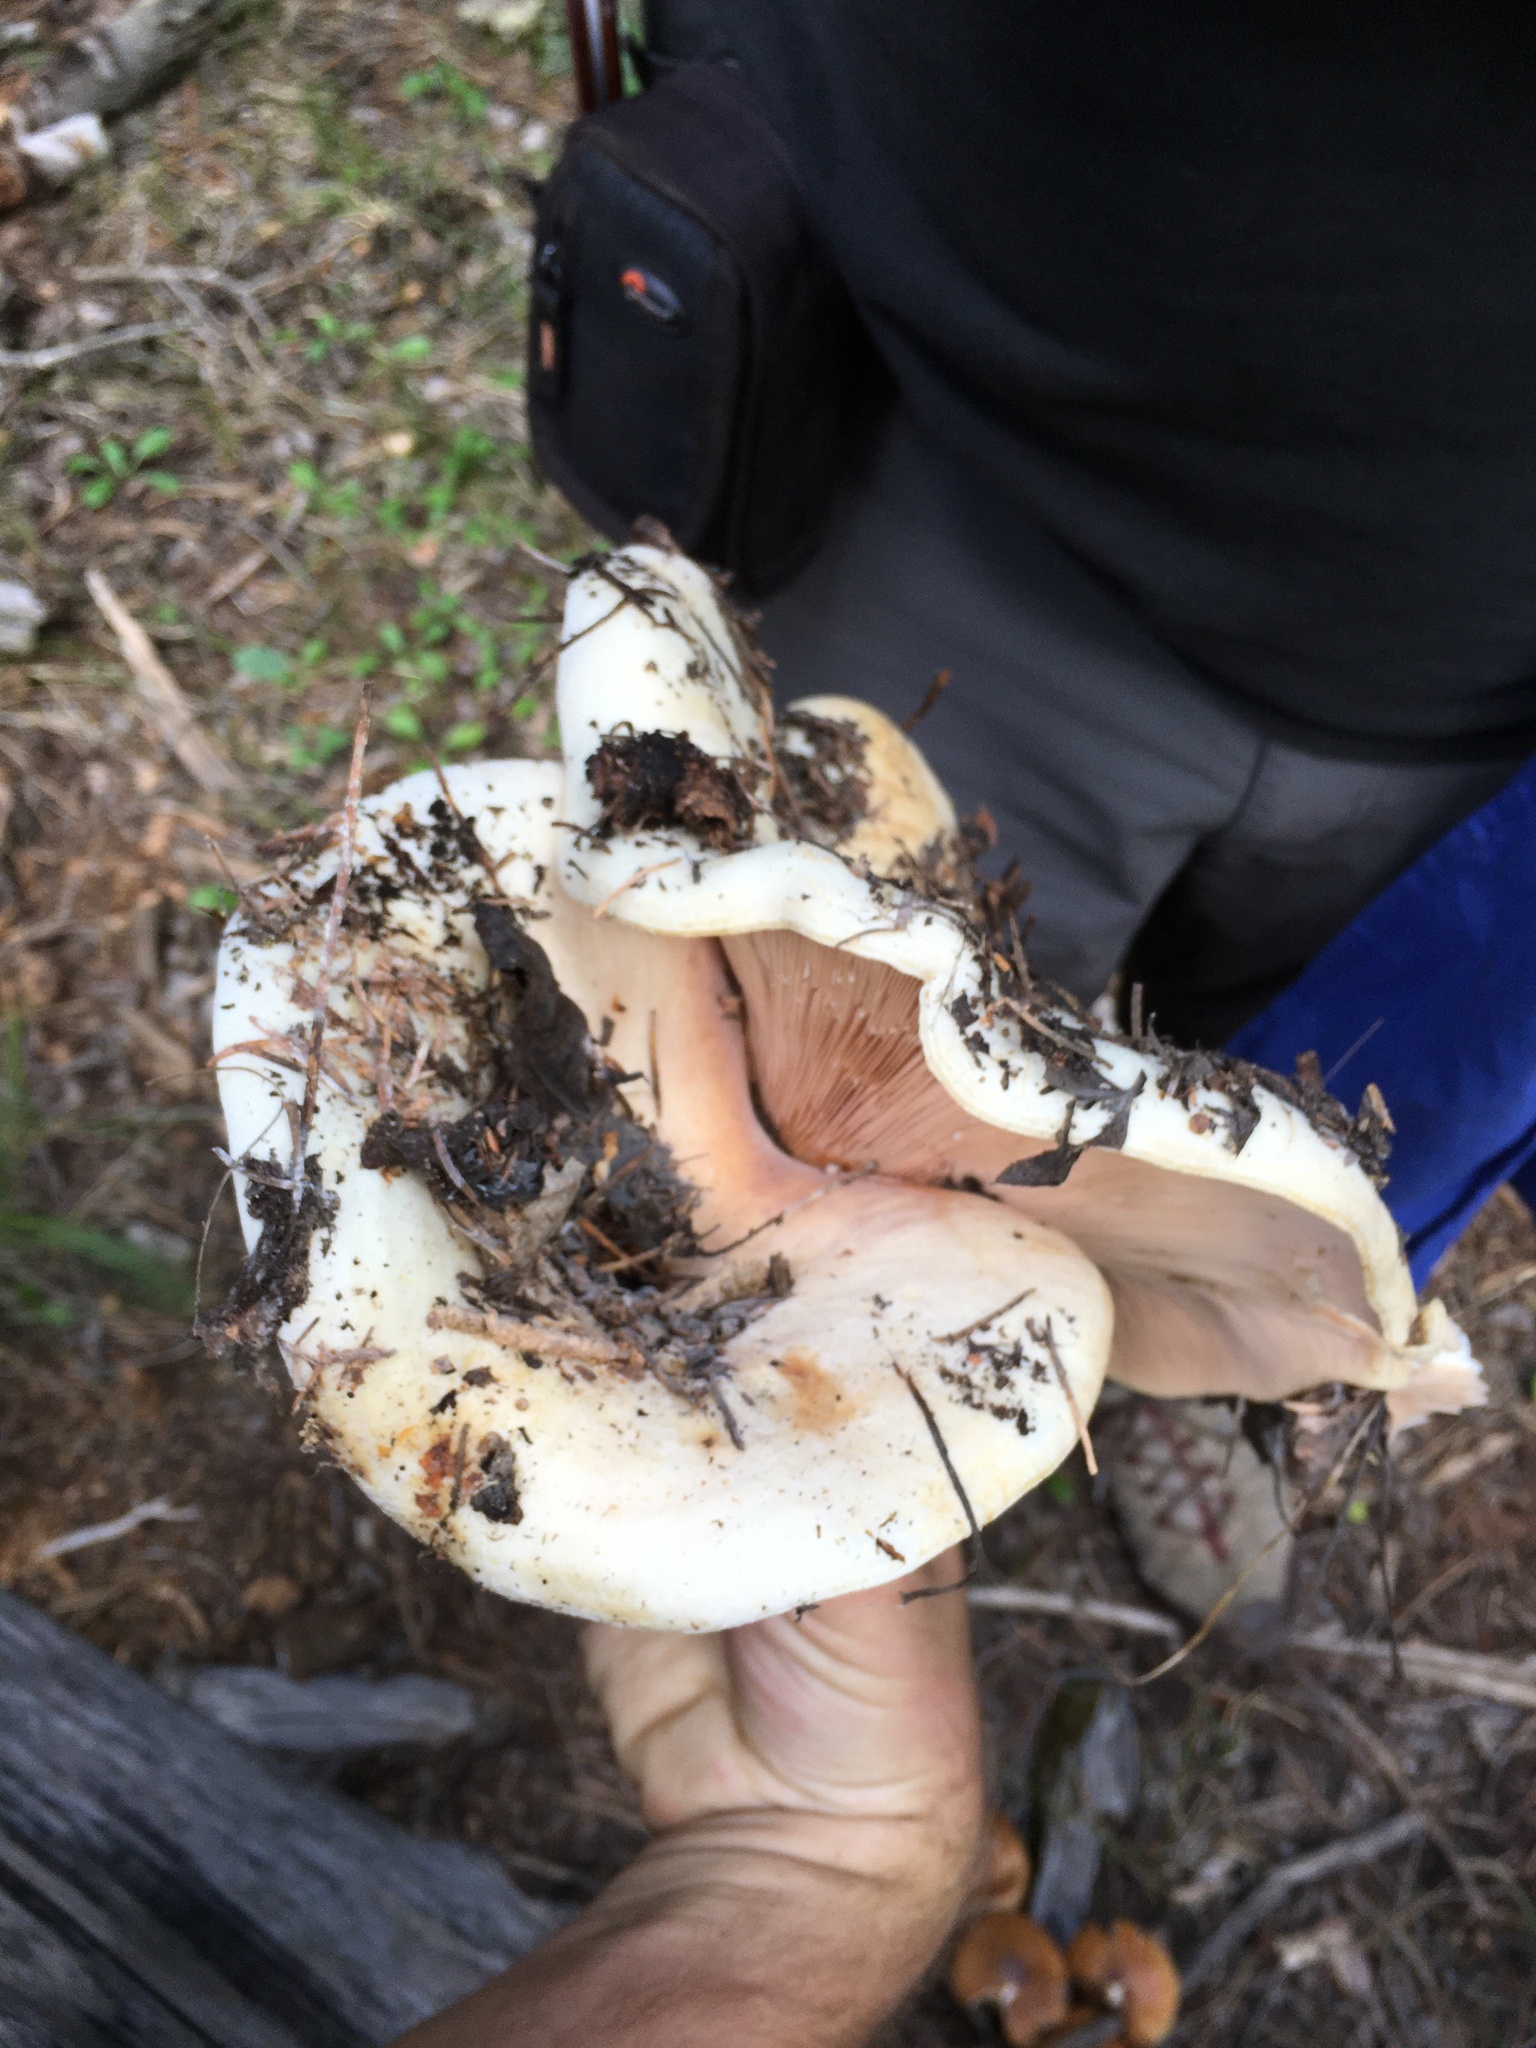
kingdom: Fungi
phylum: Basidiomycota
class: Agaricomycetes
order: Russulales
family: Russulaceae
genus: Lactarius
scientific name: Lactarius controversus
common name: Blushing milkcap
